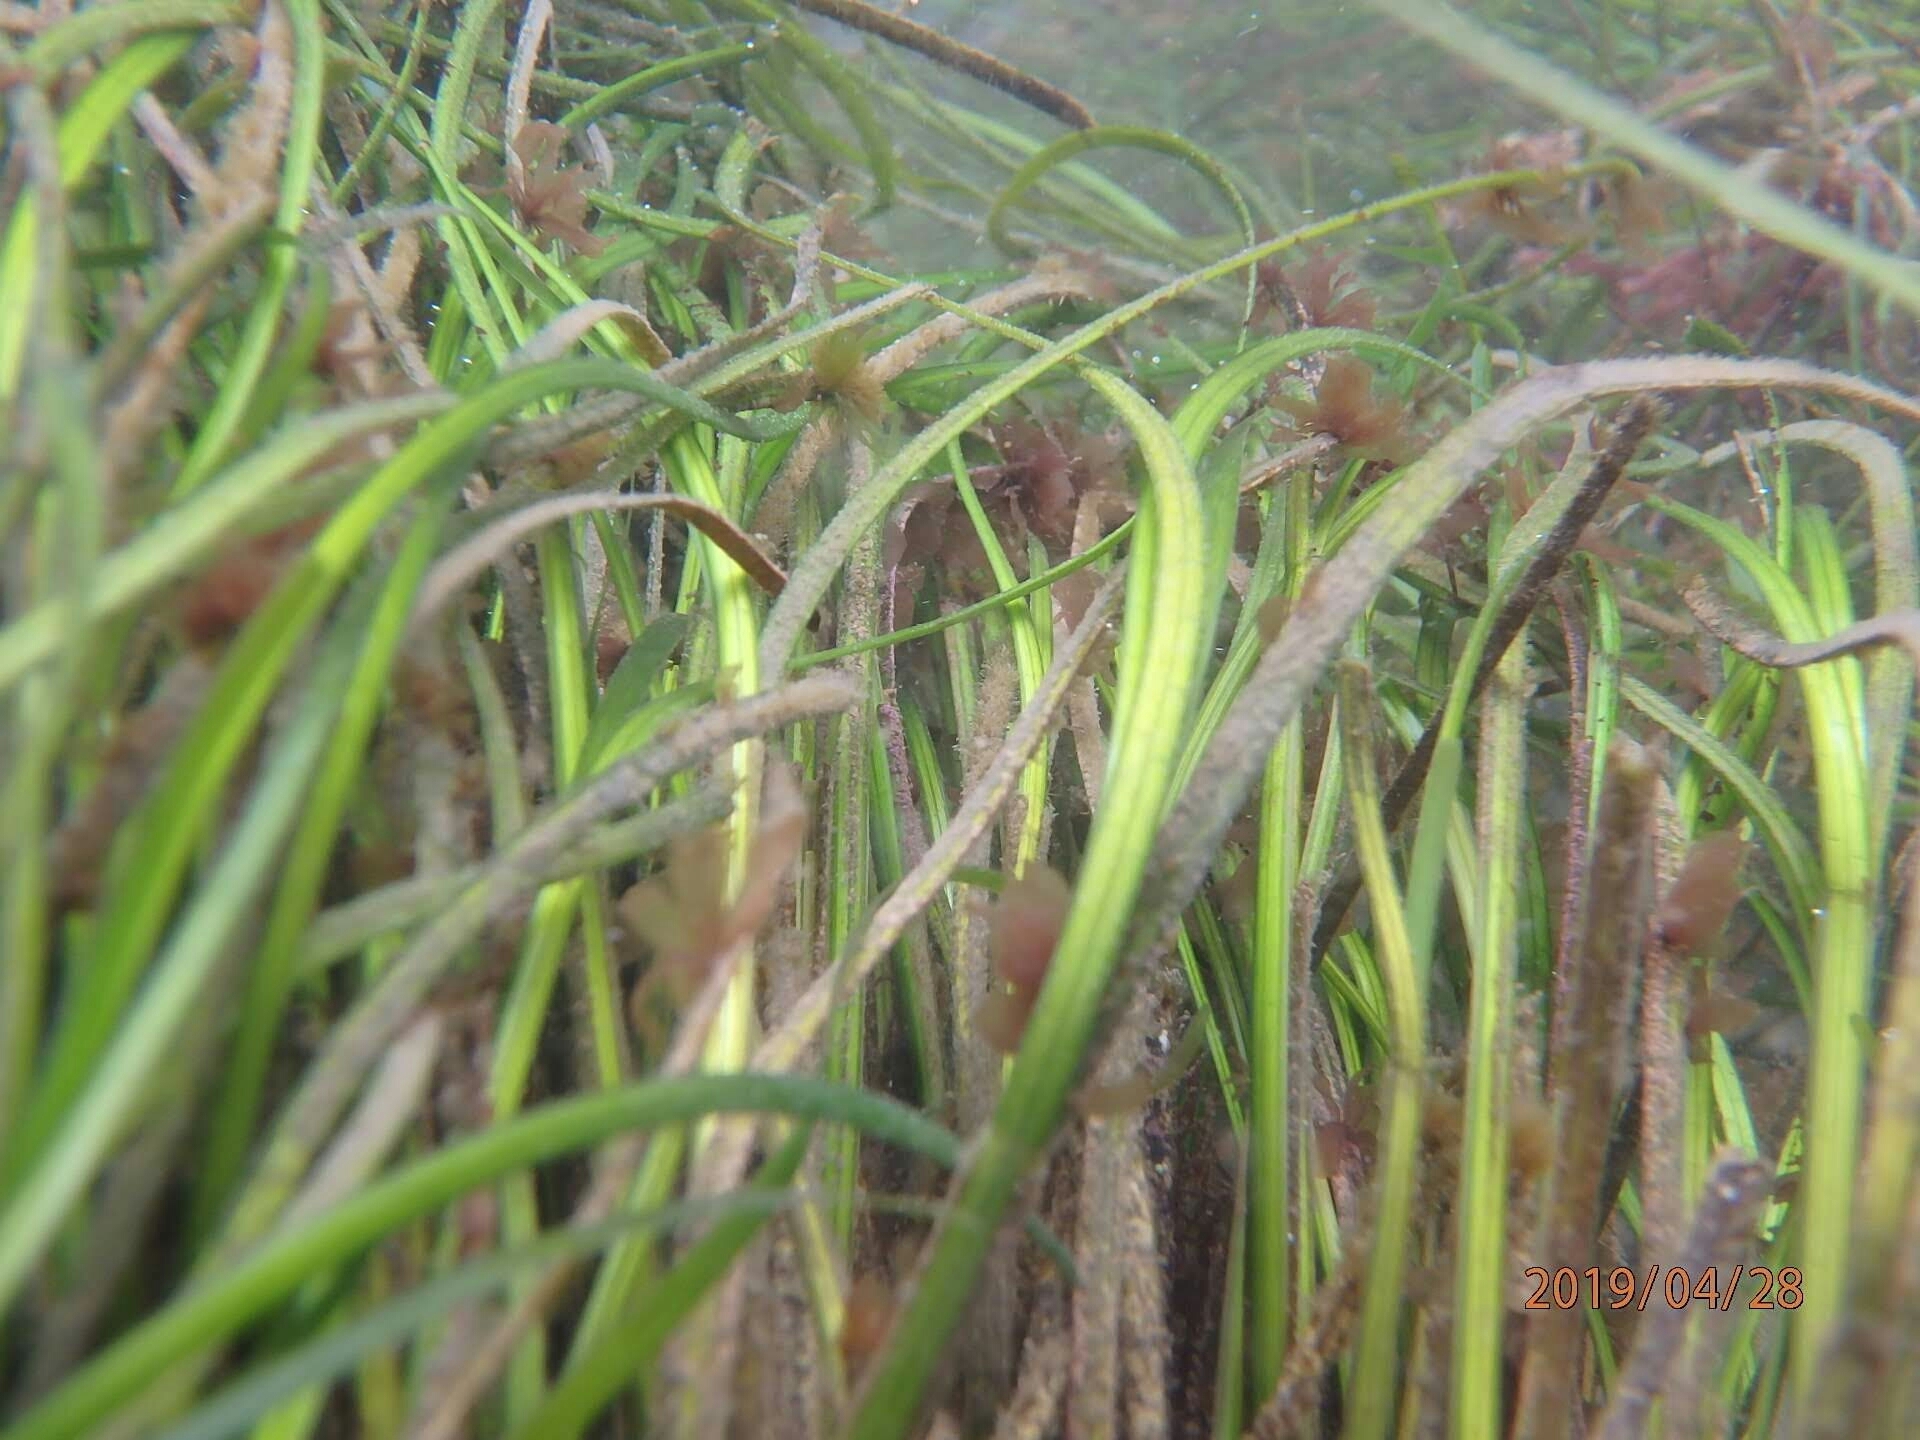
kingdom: Plantae
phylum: Tracheophyta
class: Liliopsida
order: Alismatales
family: Zosteraceae
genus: Phyllospadix
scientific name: Phyllospadix torreyi
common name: Surfgrass
